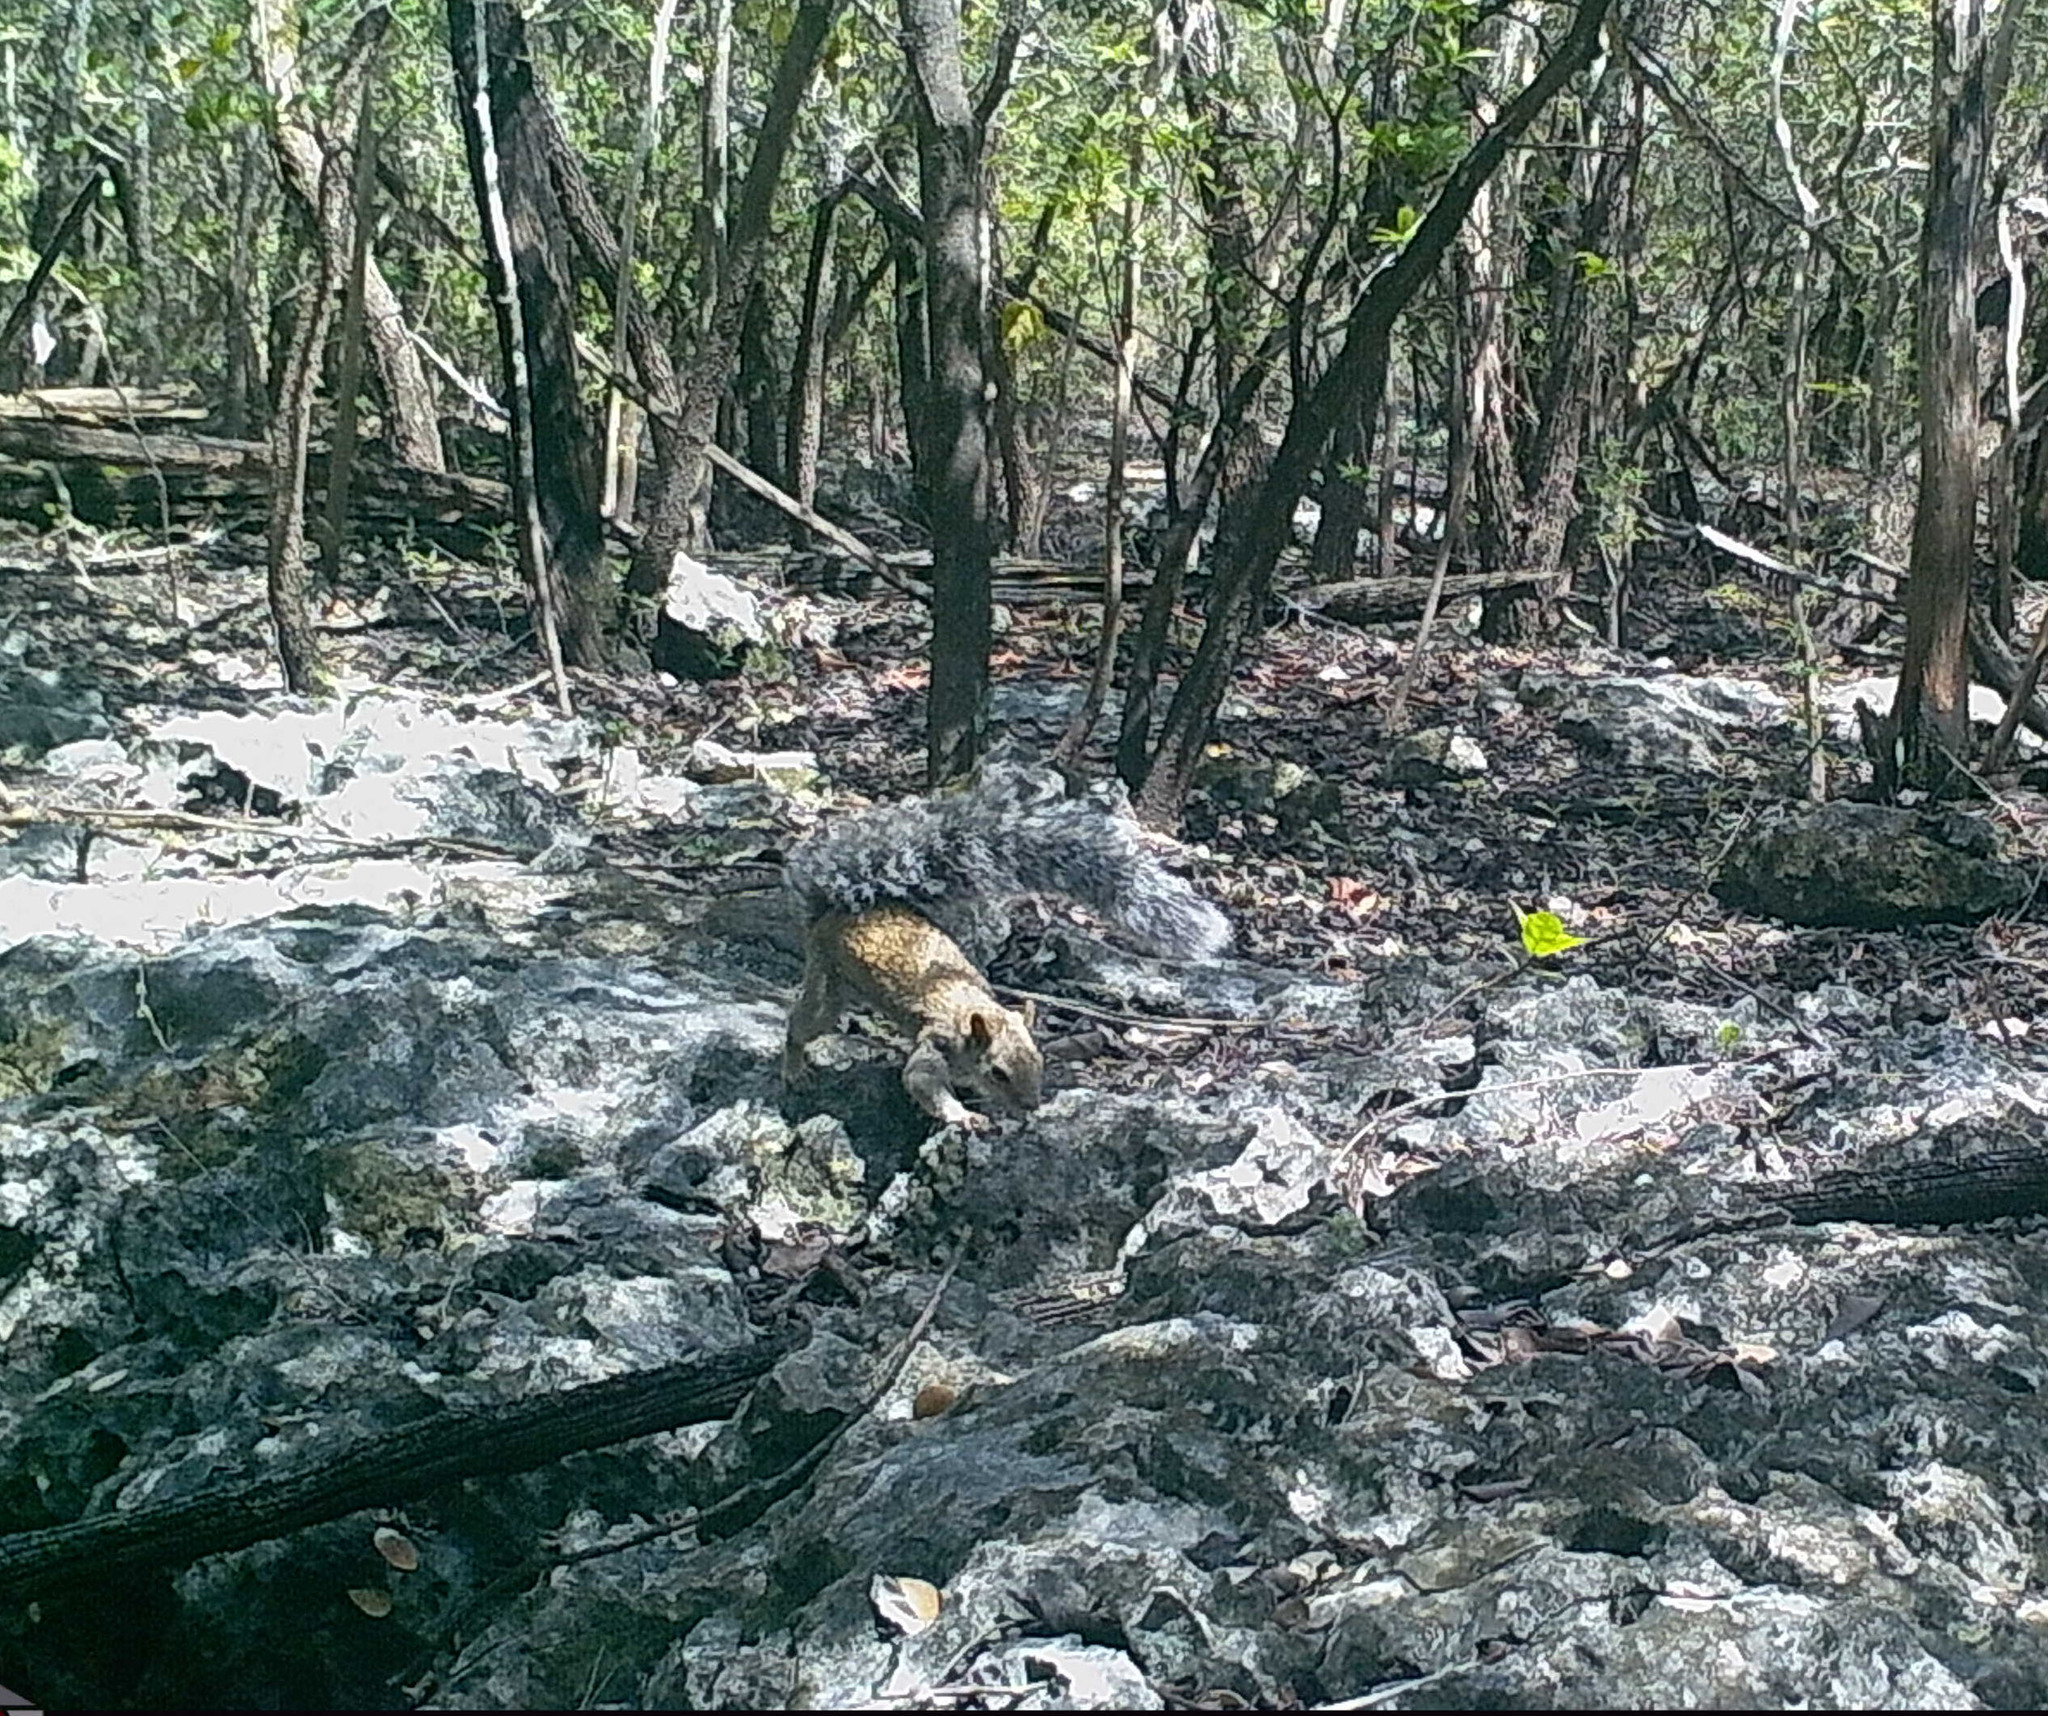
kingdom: Animalia
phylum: Chordata
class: Mammalia
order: Rodentia
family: Sciuridae
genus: Sciurus
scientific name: Sciurus yucatanensis
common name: Yucatan squirrel
